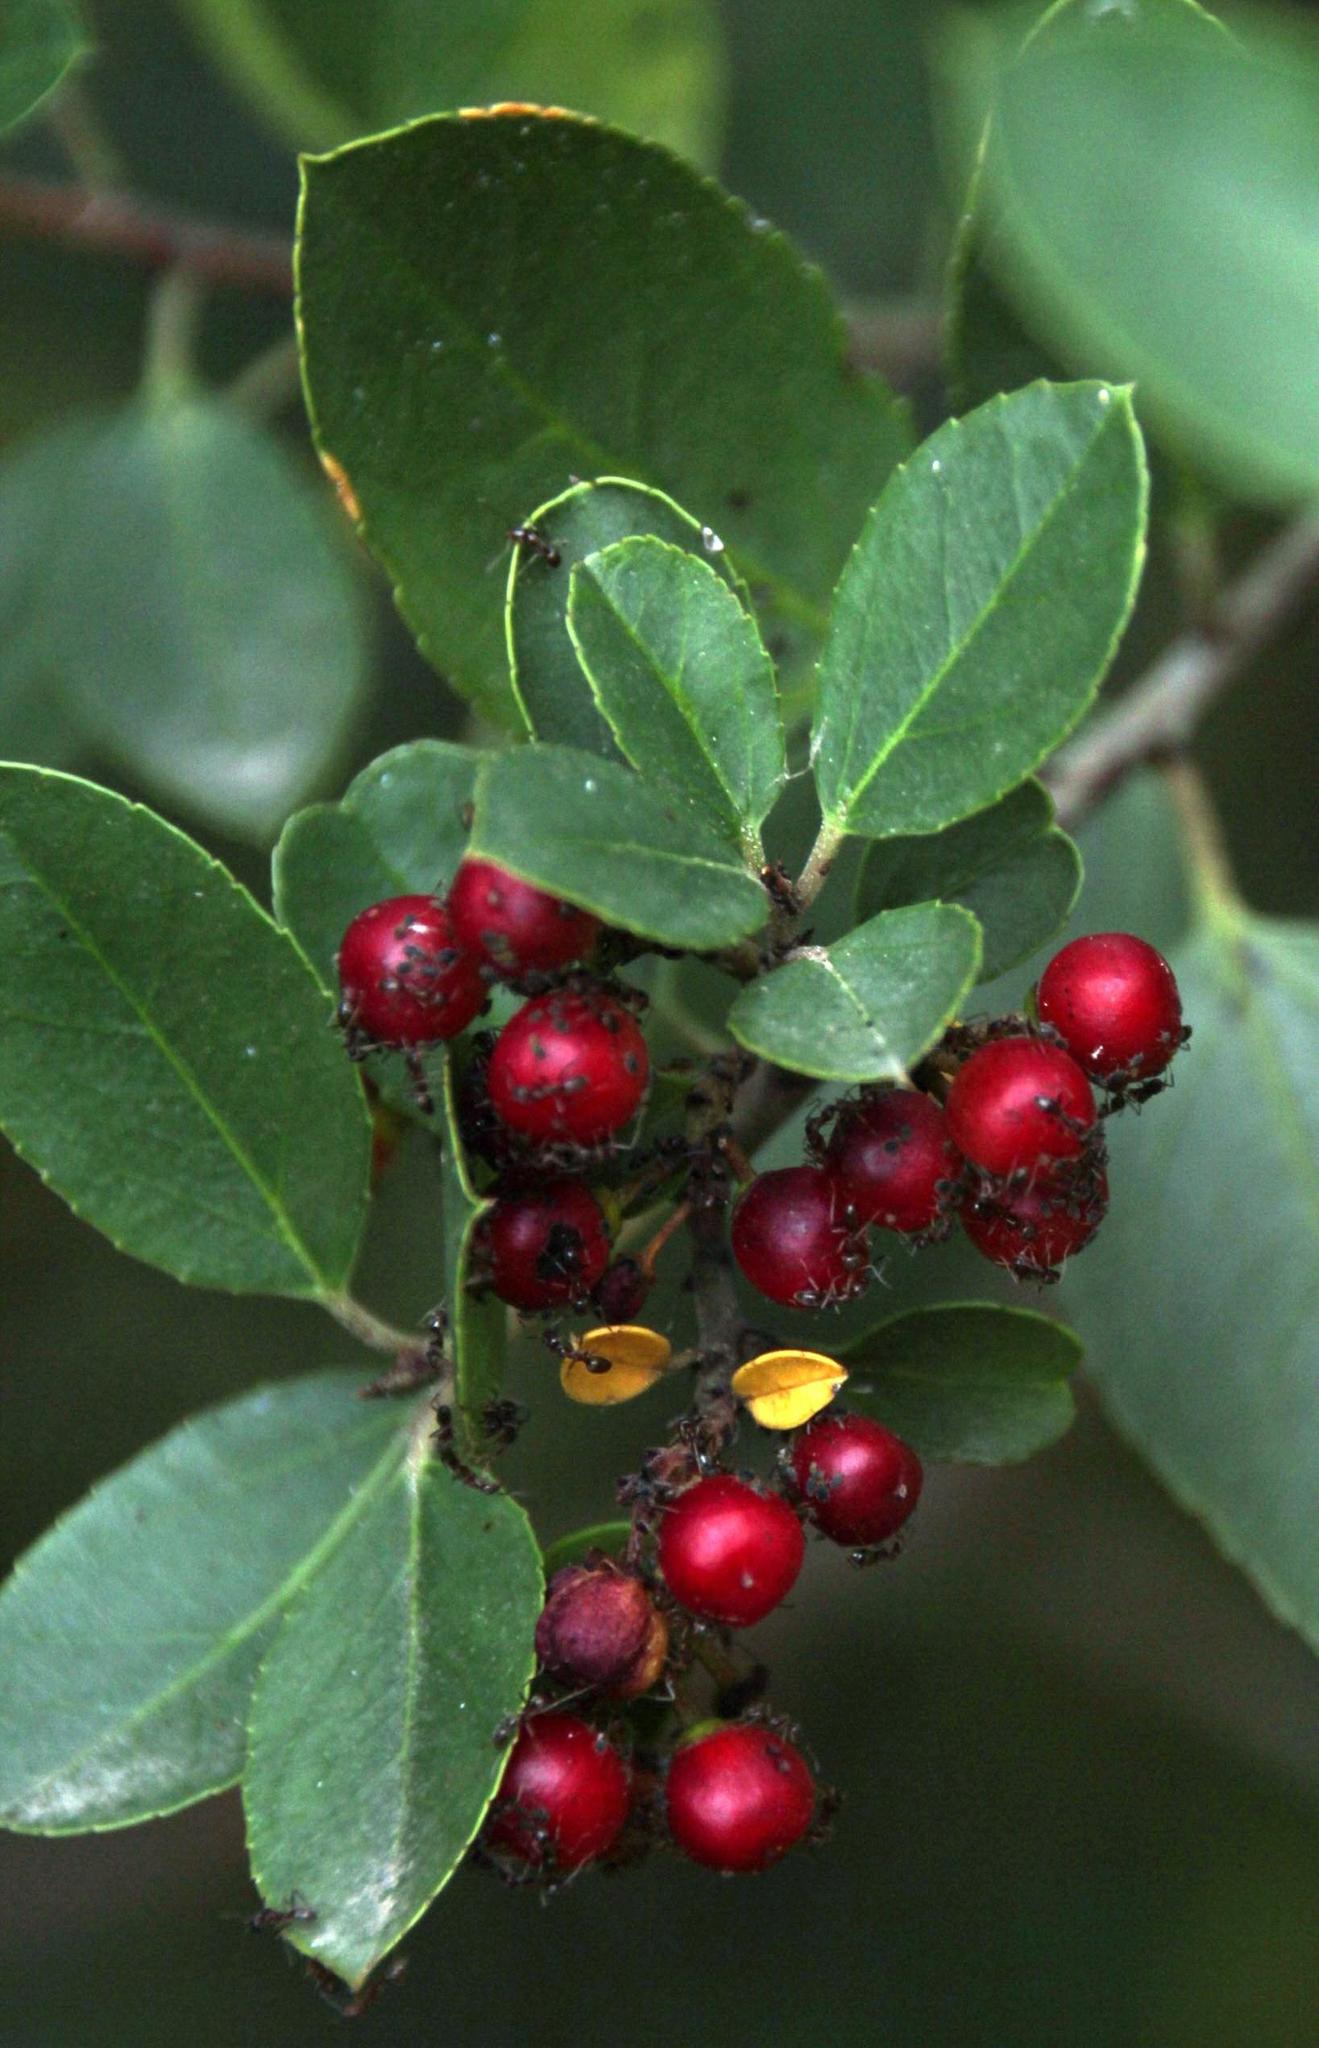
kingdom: Animalia
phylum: Arthropoda
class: Insecta
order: Hymenoptera
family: Formicidae
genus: Linepithema
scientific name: Linepithema humile
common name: Argentine ant
